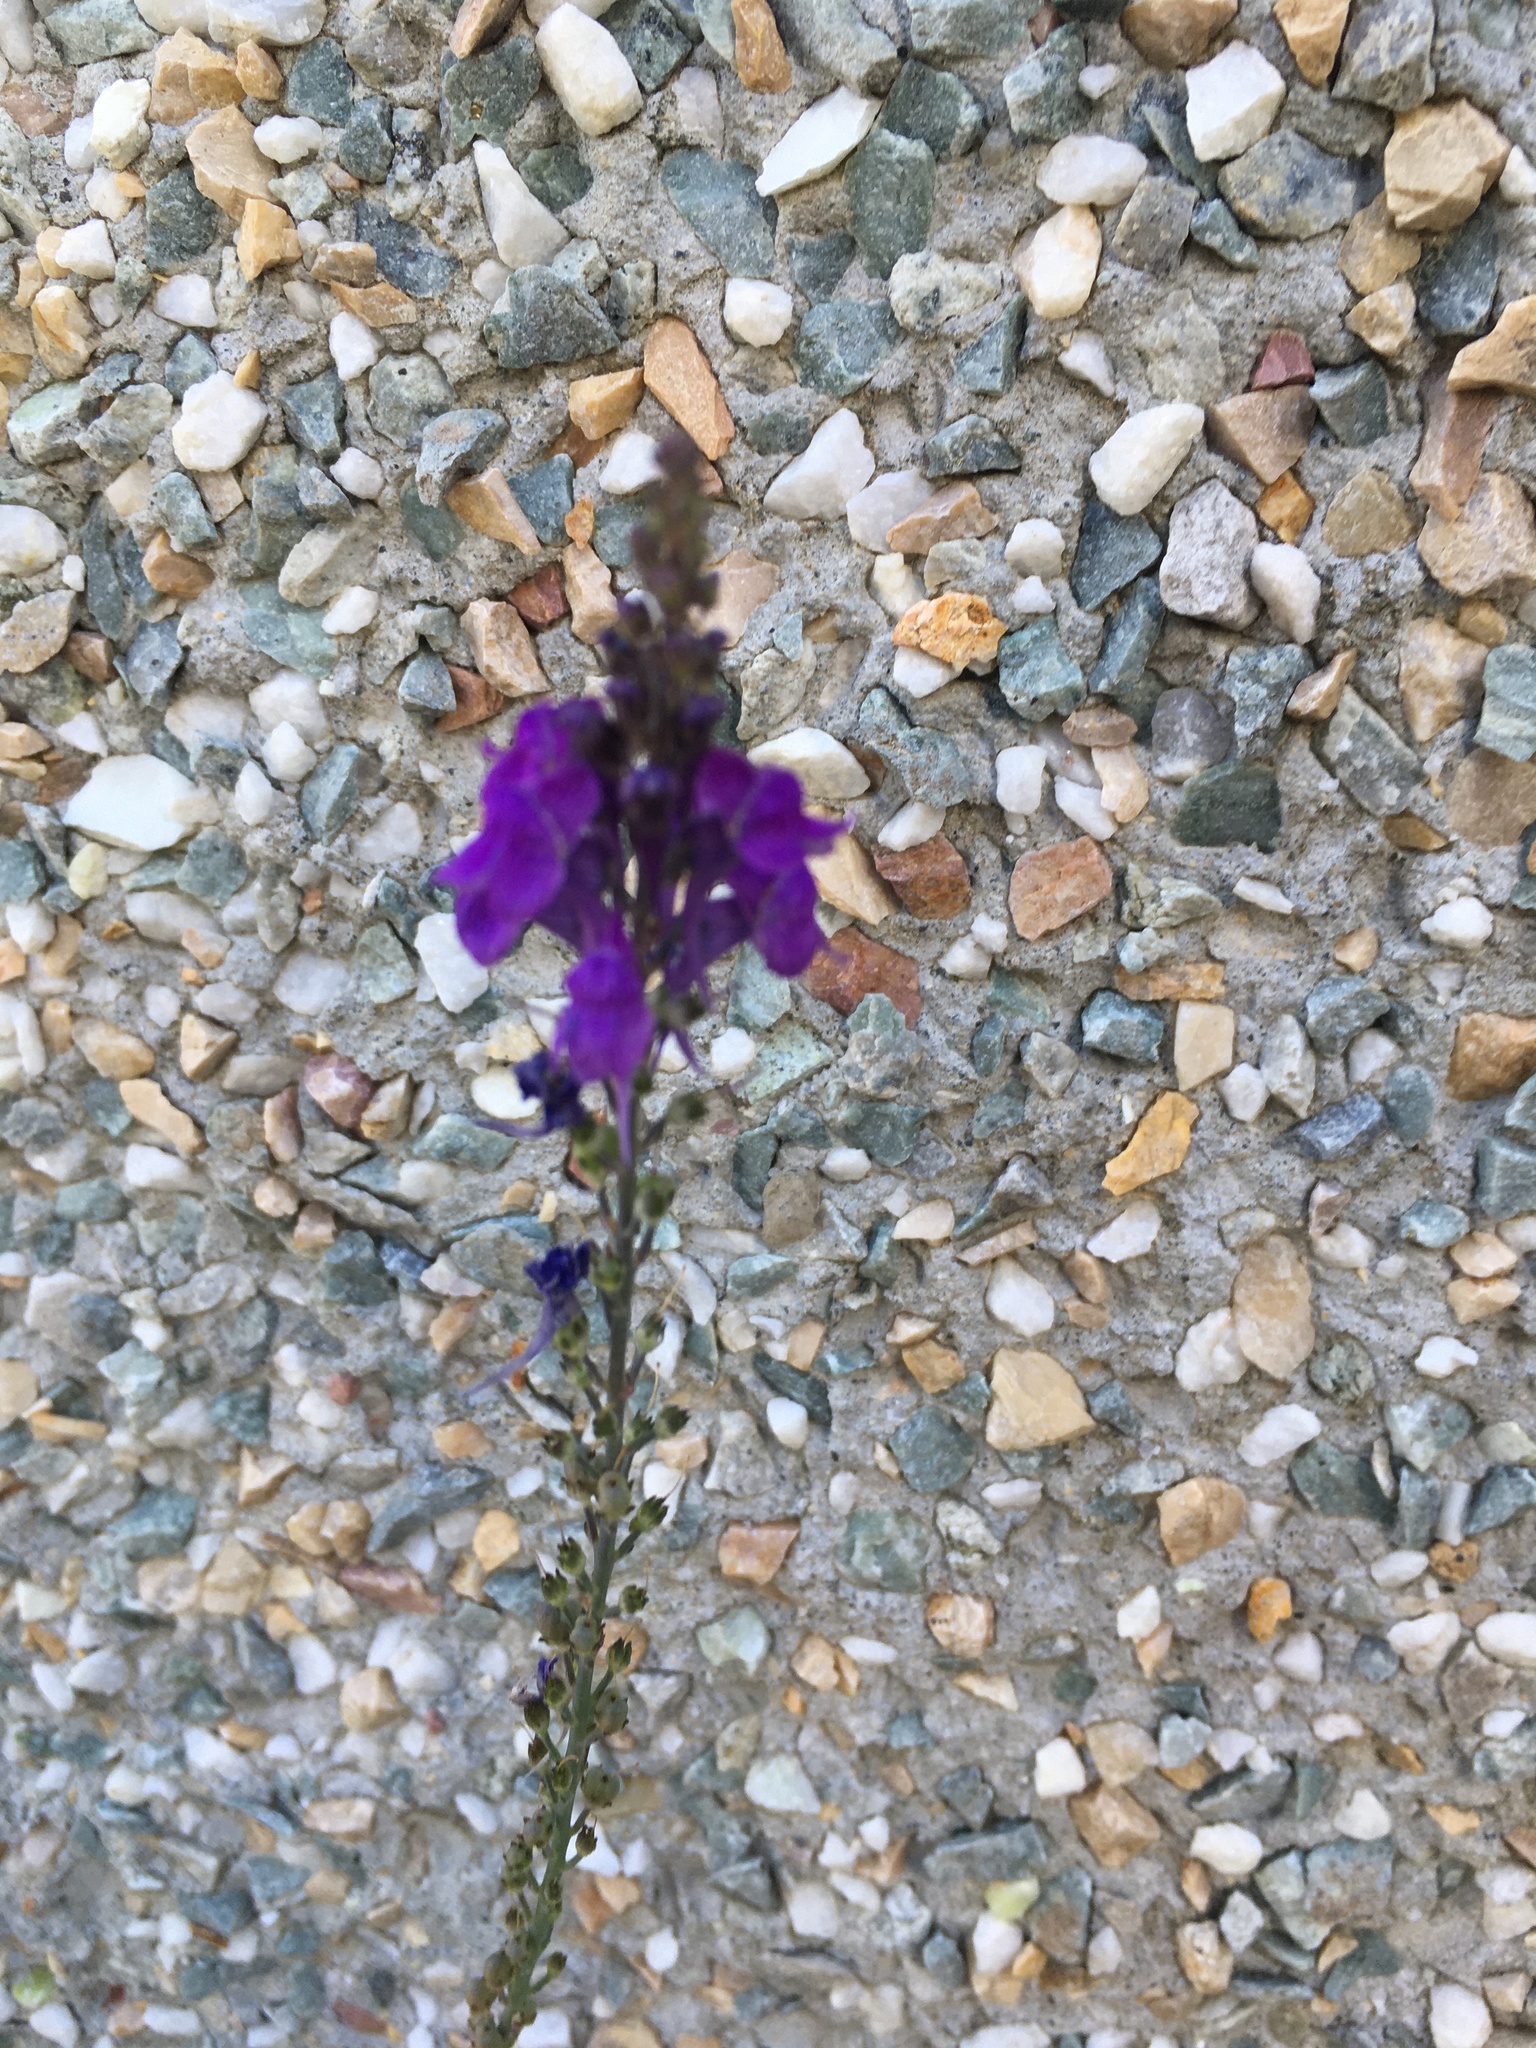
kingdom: Plantae
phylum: Tracheophyta
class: Magnoliopsida
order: Lamiales
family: Plantaginaceae
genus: Linaria
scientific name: Linaria purpurea
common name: Purple toadflax
